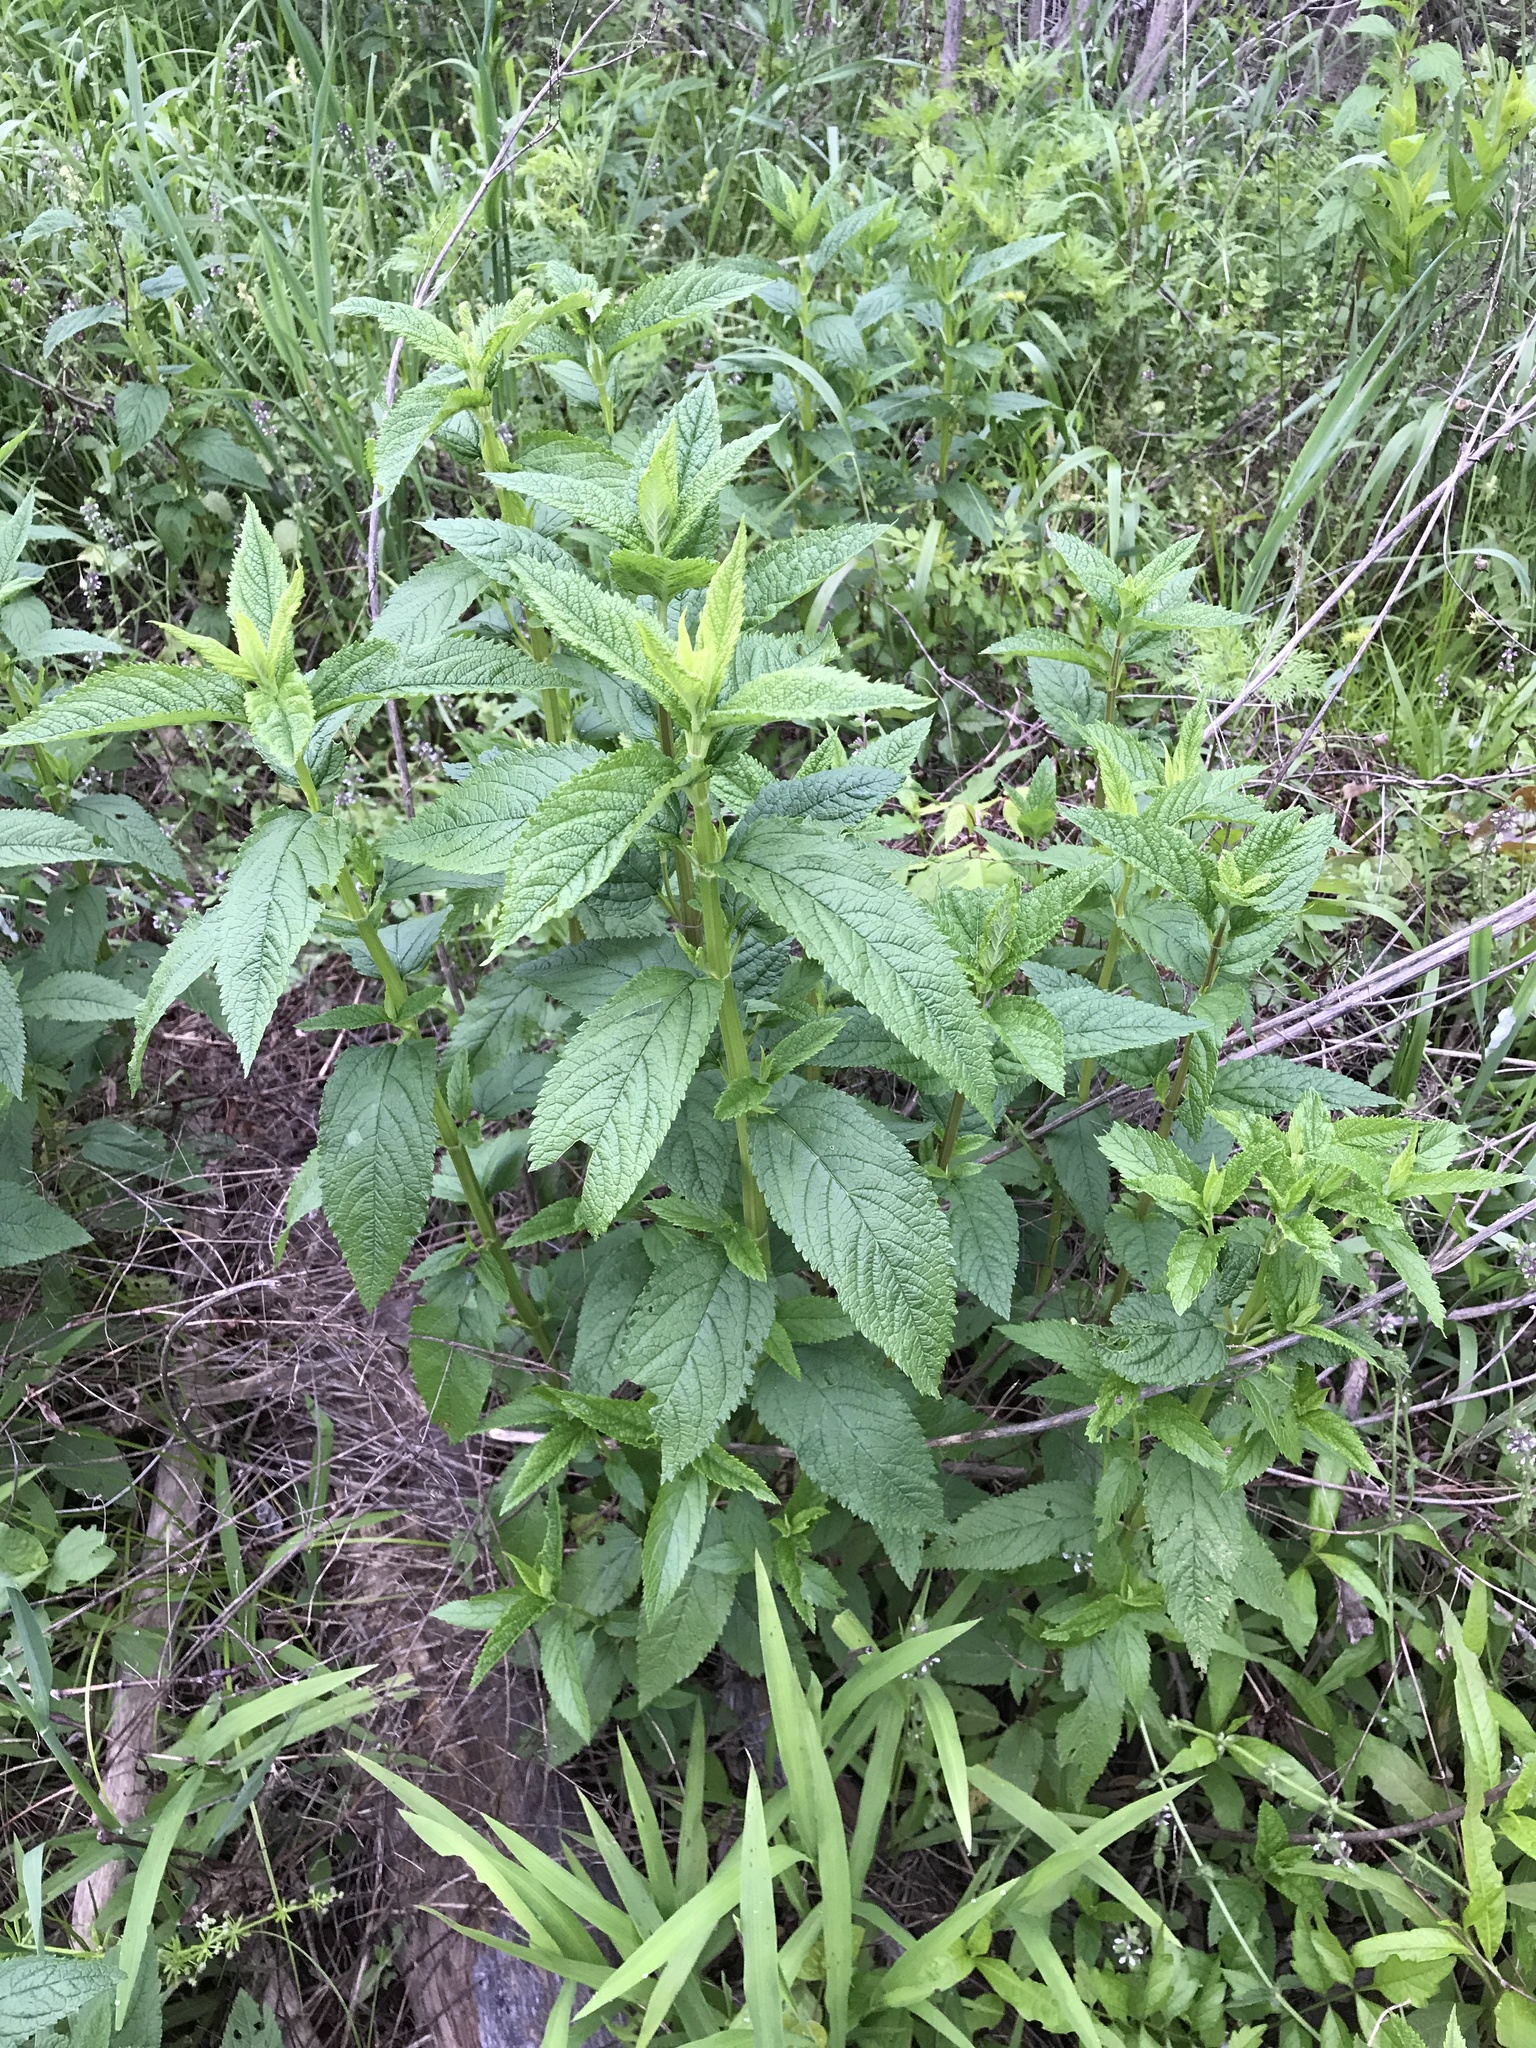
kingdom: Plantae
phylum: Tracheophyta
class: Magnoliopsida
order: Lamiales
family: Lamiaceae
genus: Teucrium
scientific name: Teucrium canadense
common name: American germander
